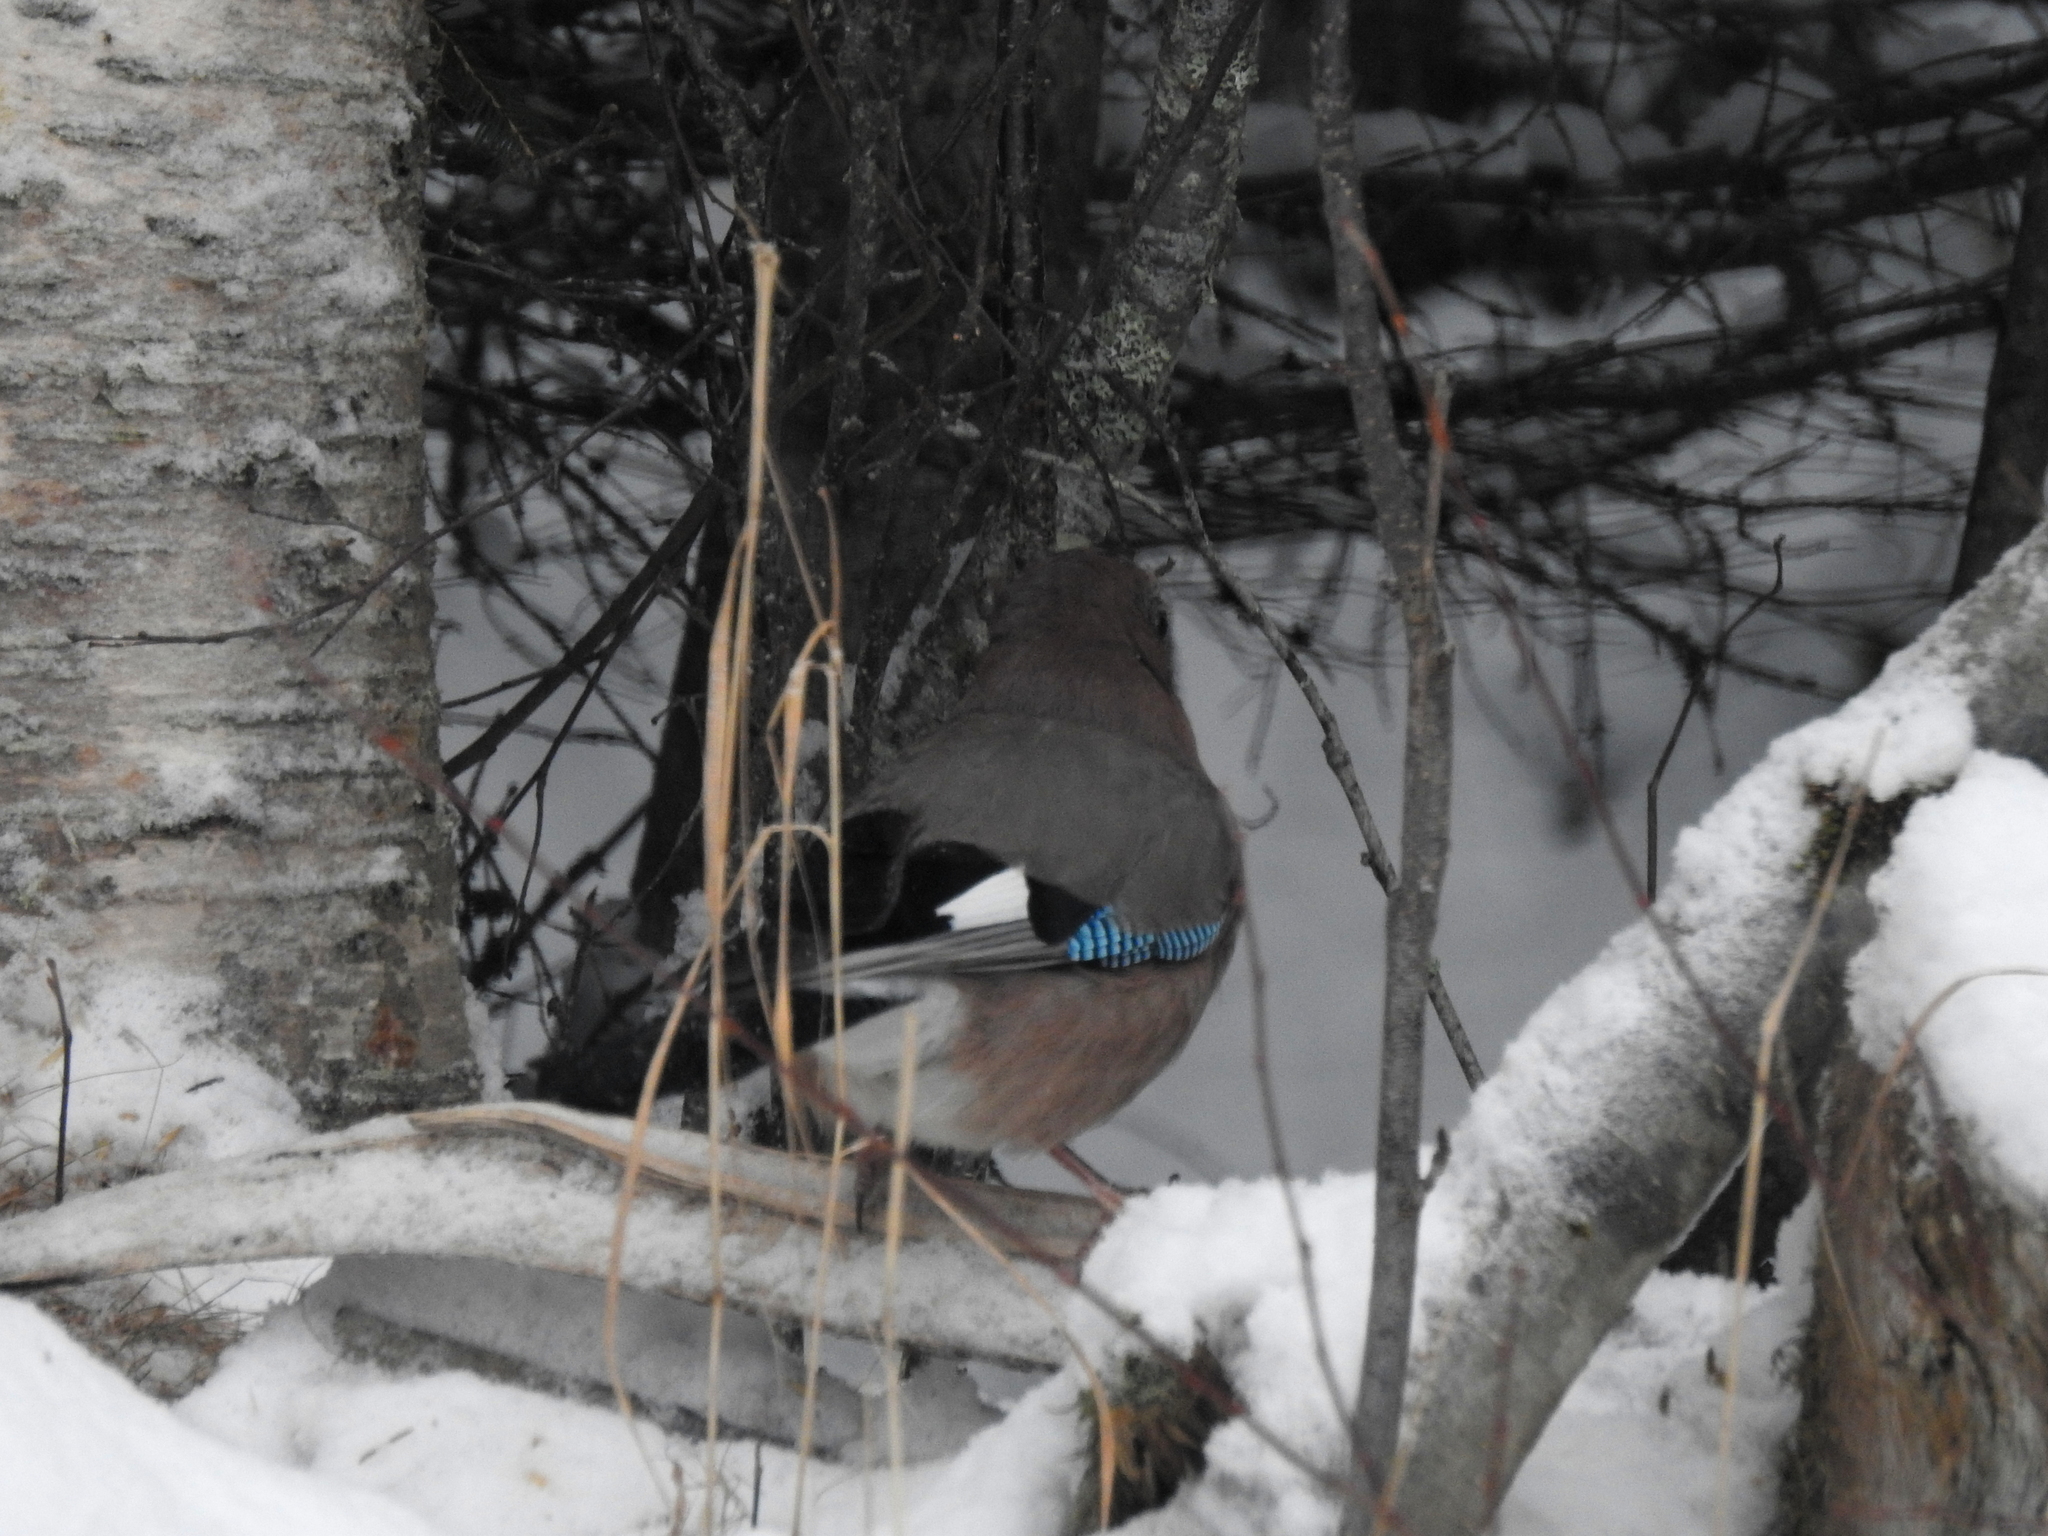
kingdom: Animalia
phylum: Chordata
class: Aves
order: Passeriformes
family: Corvidae
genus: Garrulus
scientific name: Garrulus glandarius
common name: Eurasian jay
